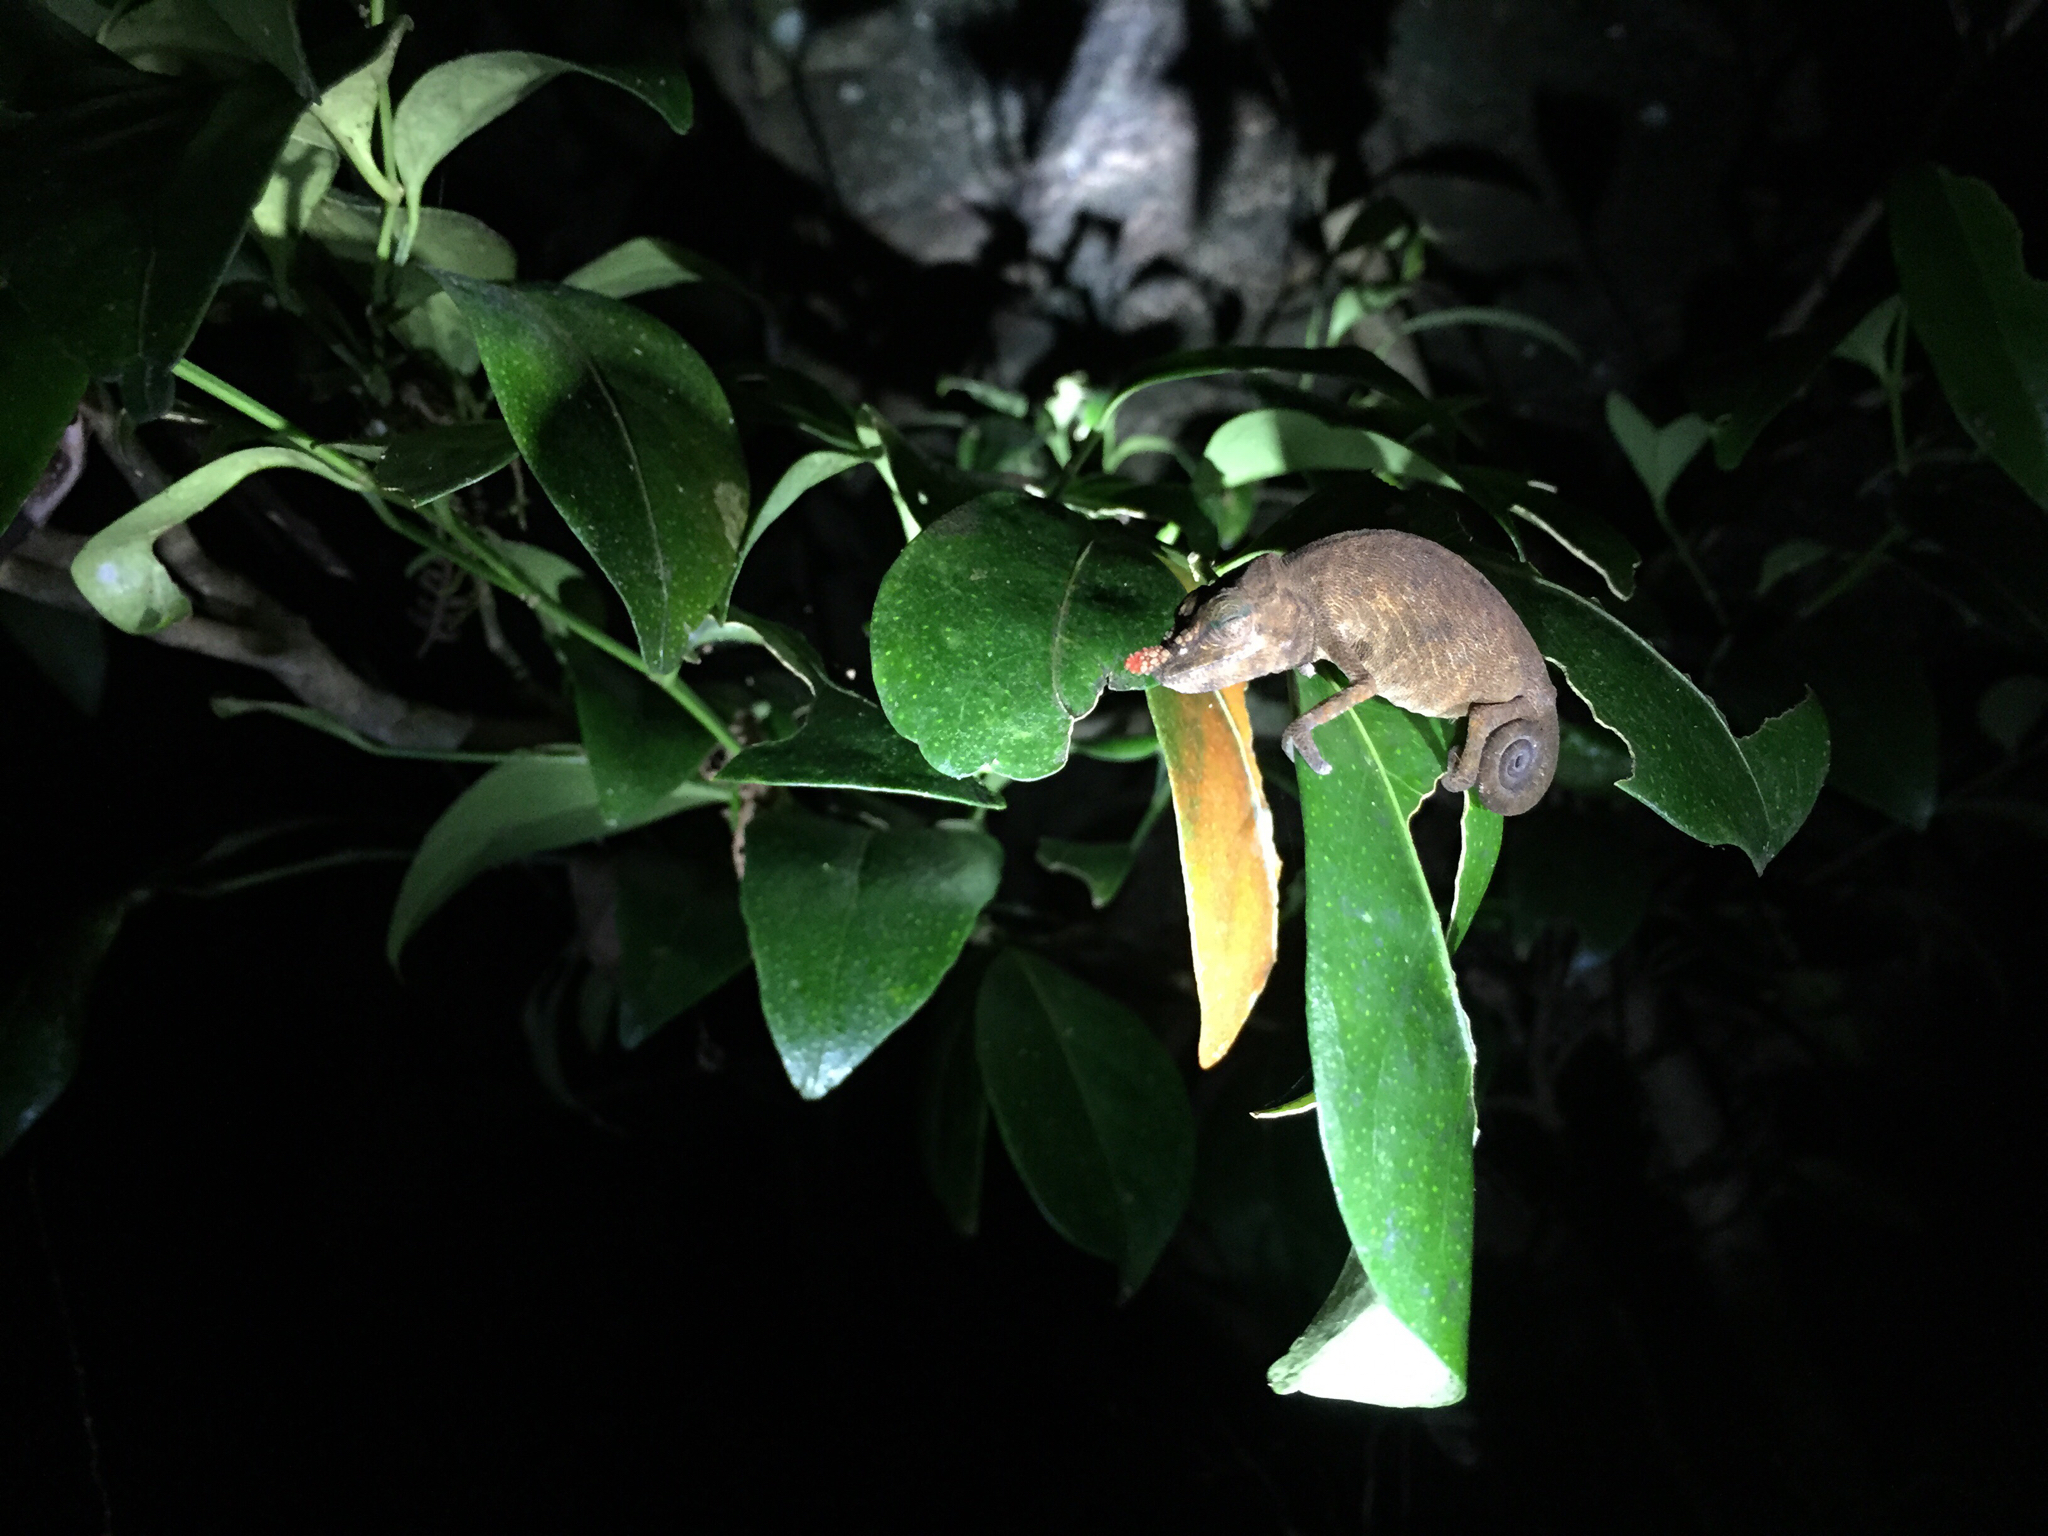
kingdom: Animalia
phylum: Chordata
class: Squamata
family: Chamaeleonidae
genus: Calumma
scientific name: Calumma gallus
